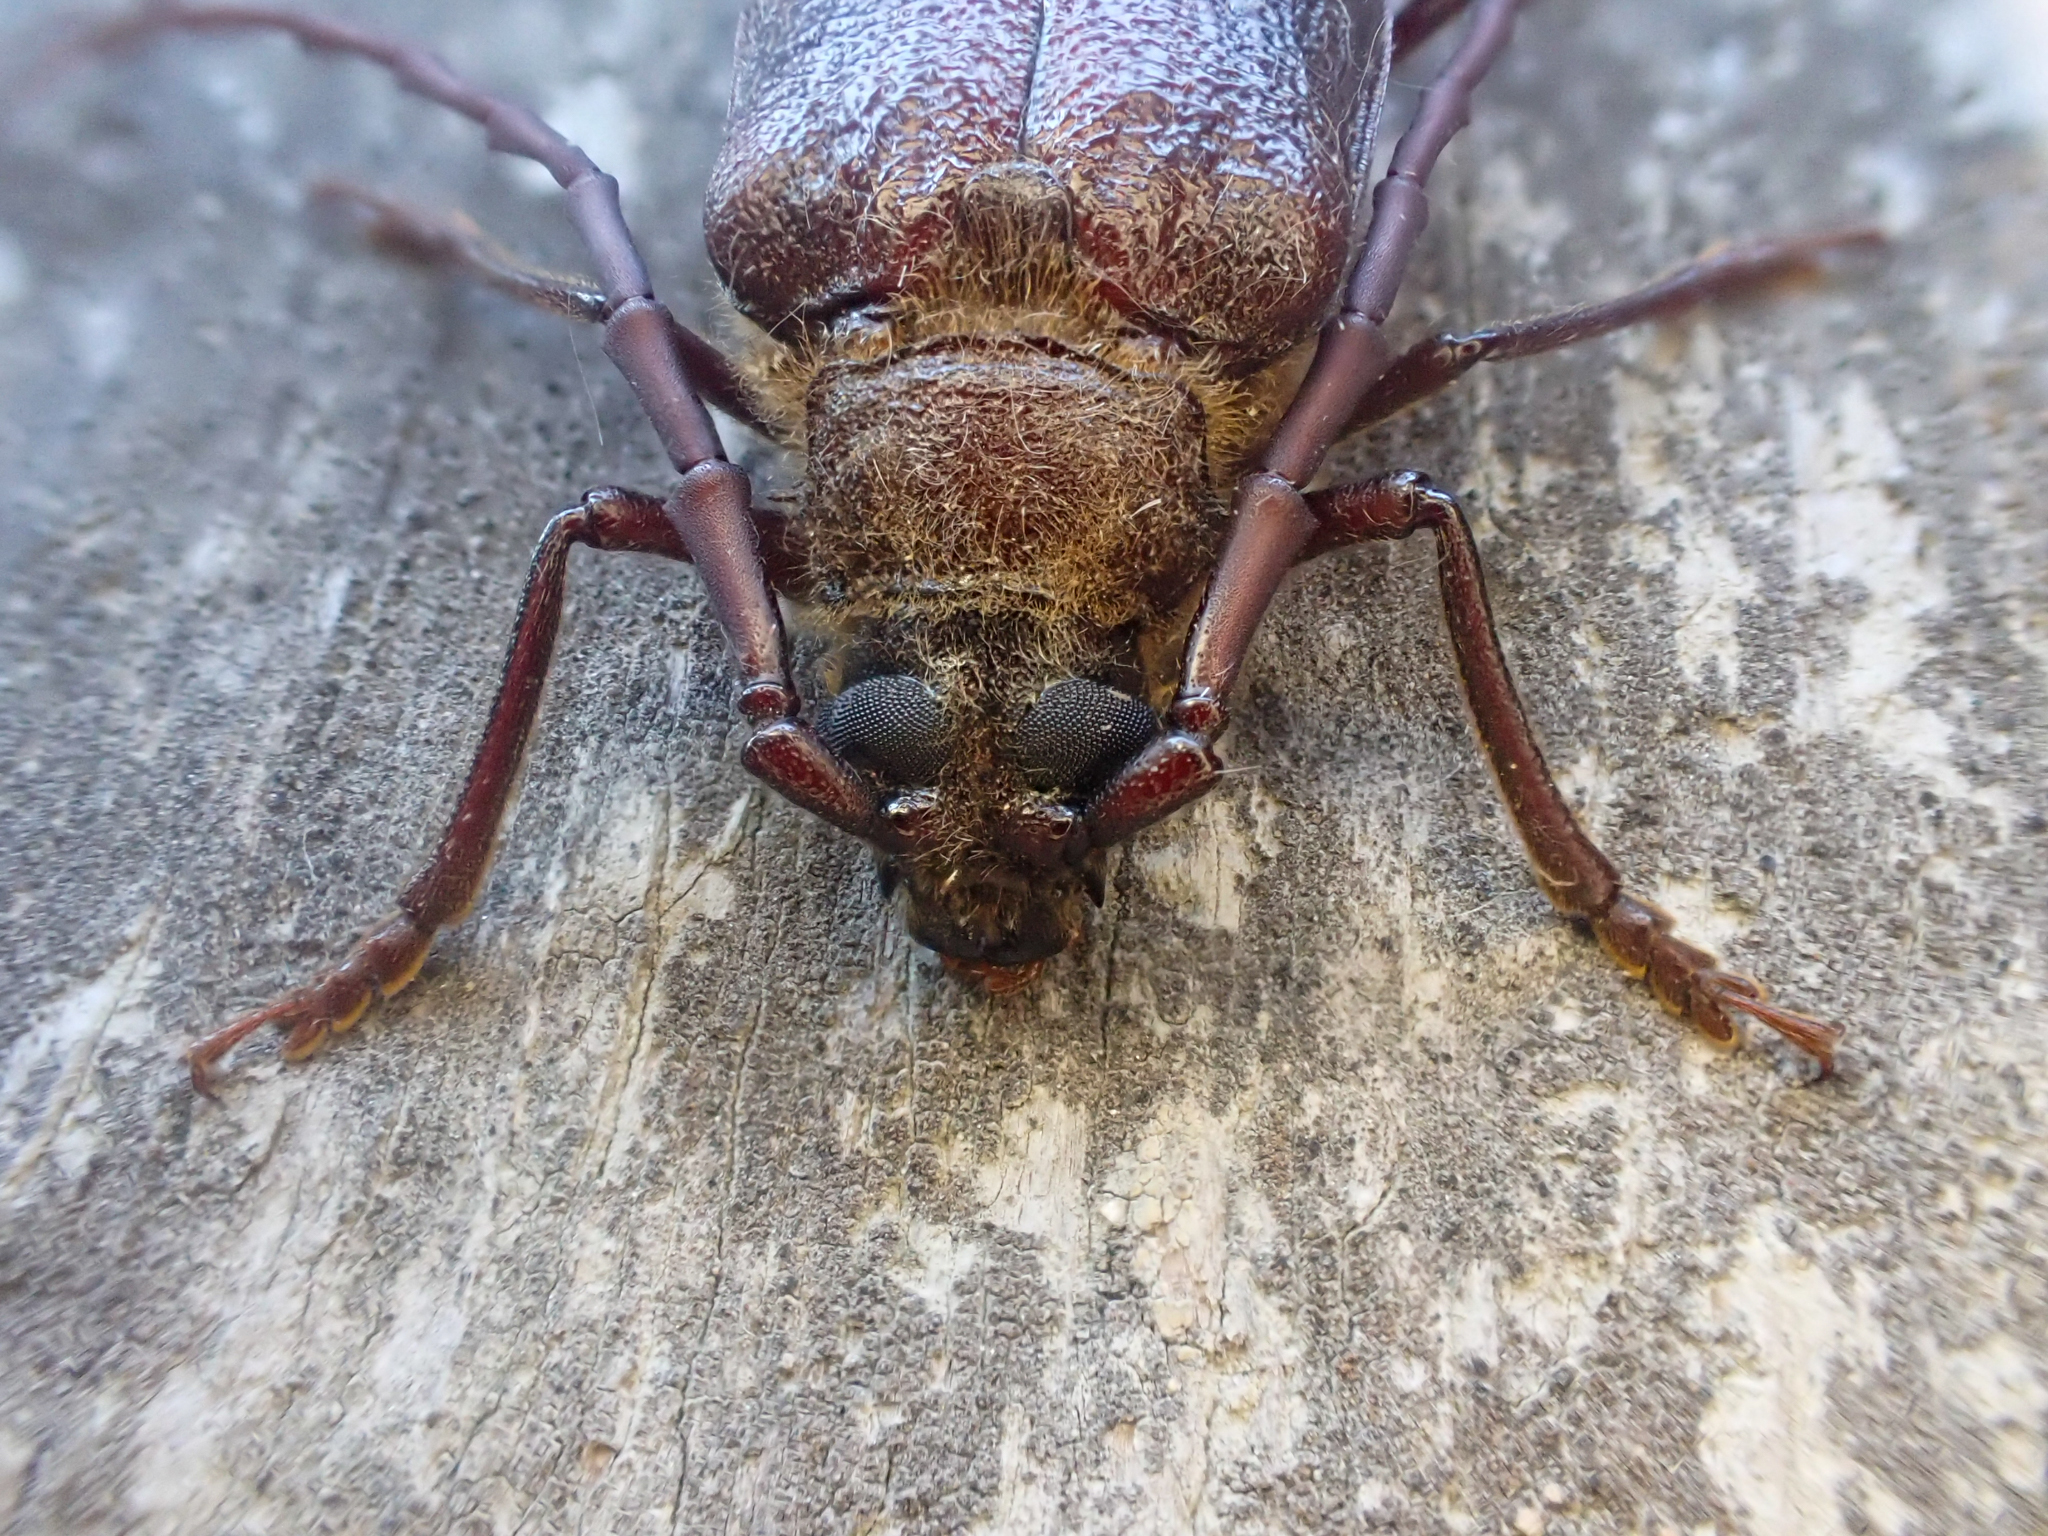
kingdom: Animalia
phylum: Arthropoda
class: Insecta
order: Coleoptera
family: Cerambycidae
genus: Tragosoma
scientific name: Tragosoma harrisii
